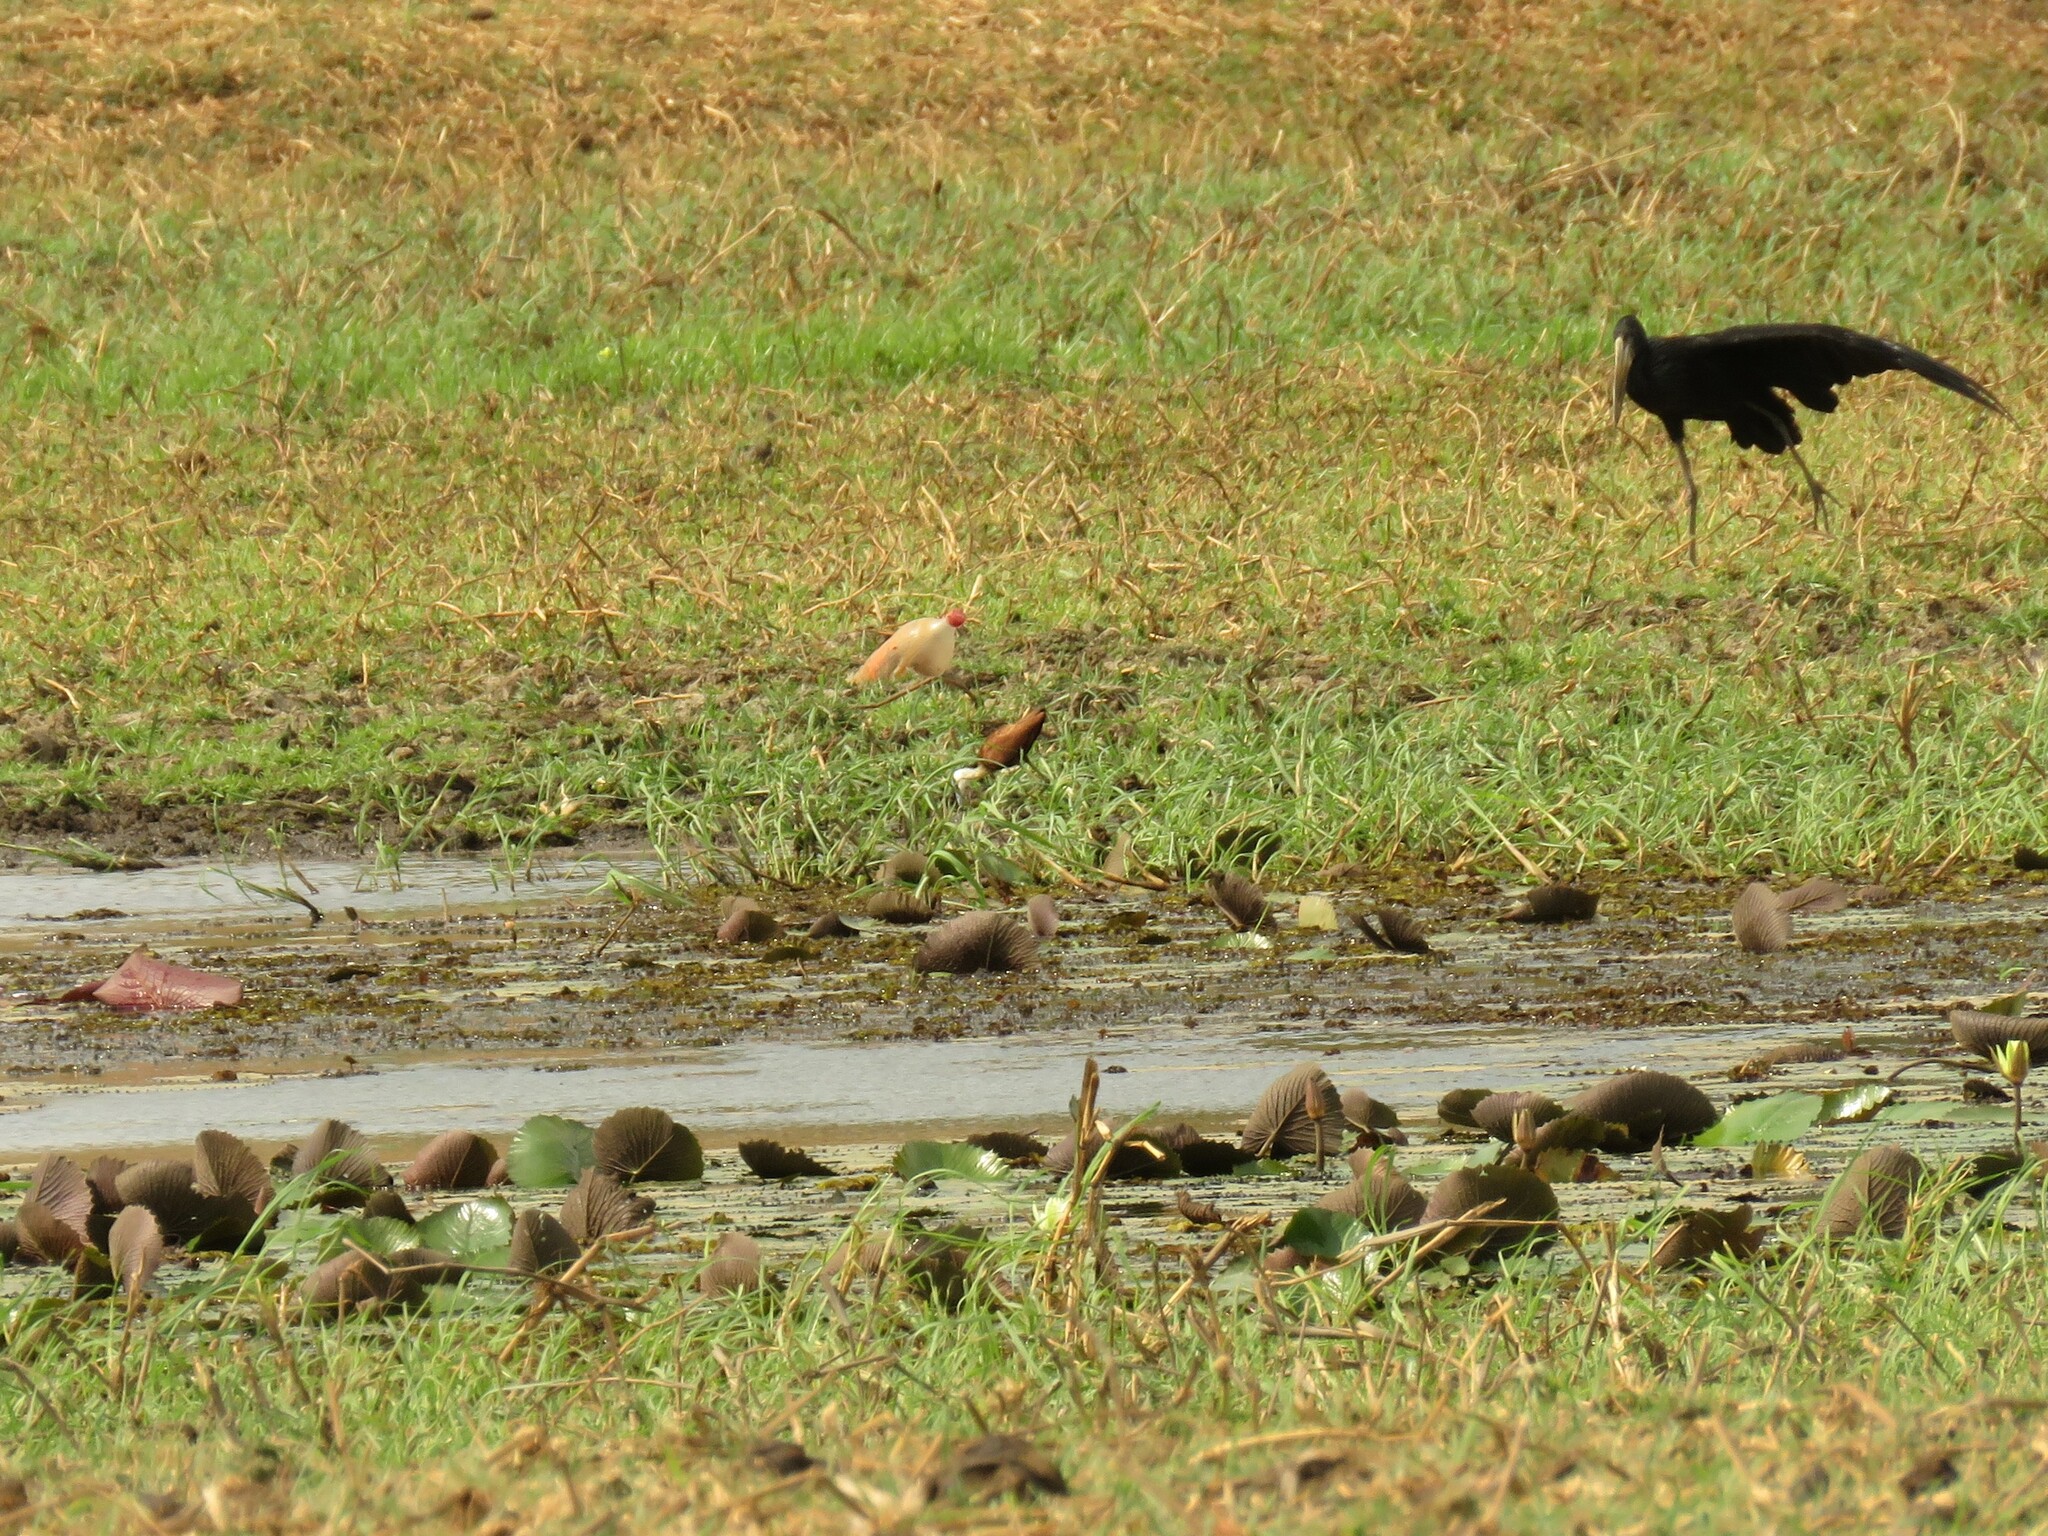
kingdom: Animalia
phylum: Chordata
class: Aves
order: Charadriiformes
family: Jacanidae
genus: Actophilornis
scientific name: Actophilornis africanus
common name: African jacana
